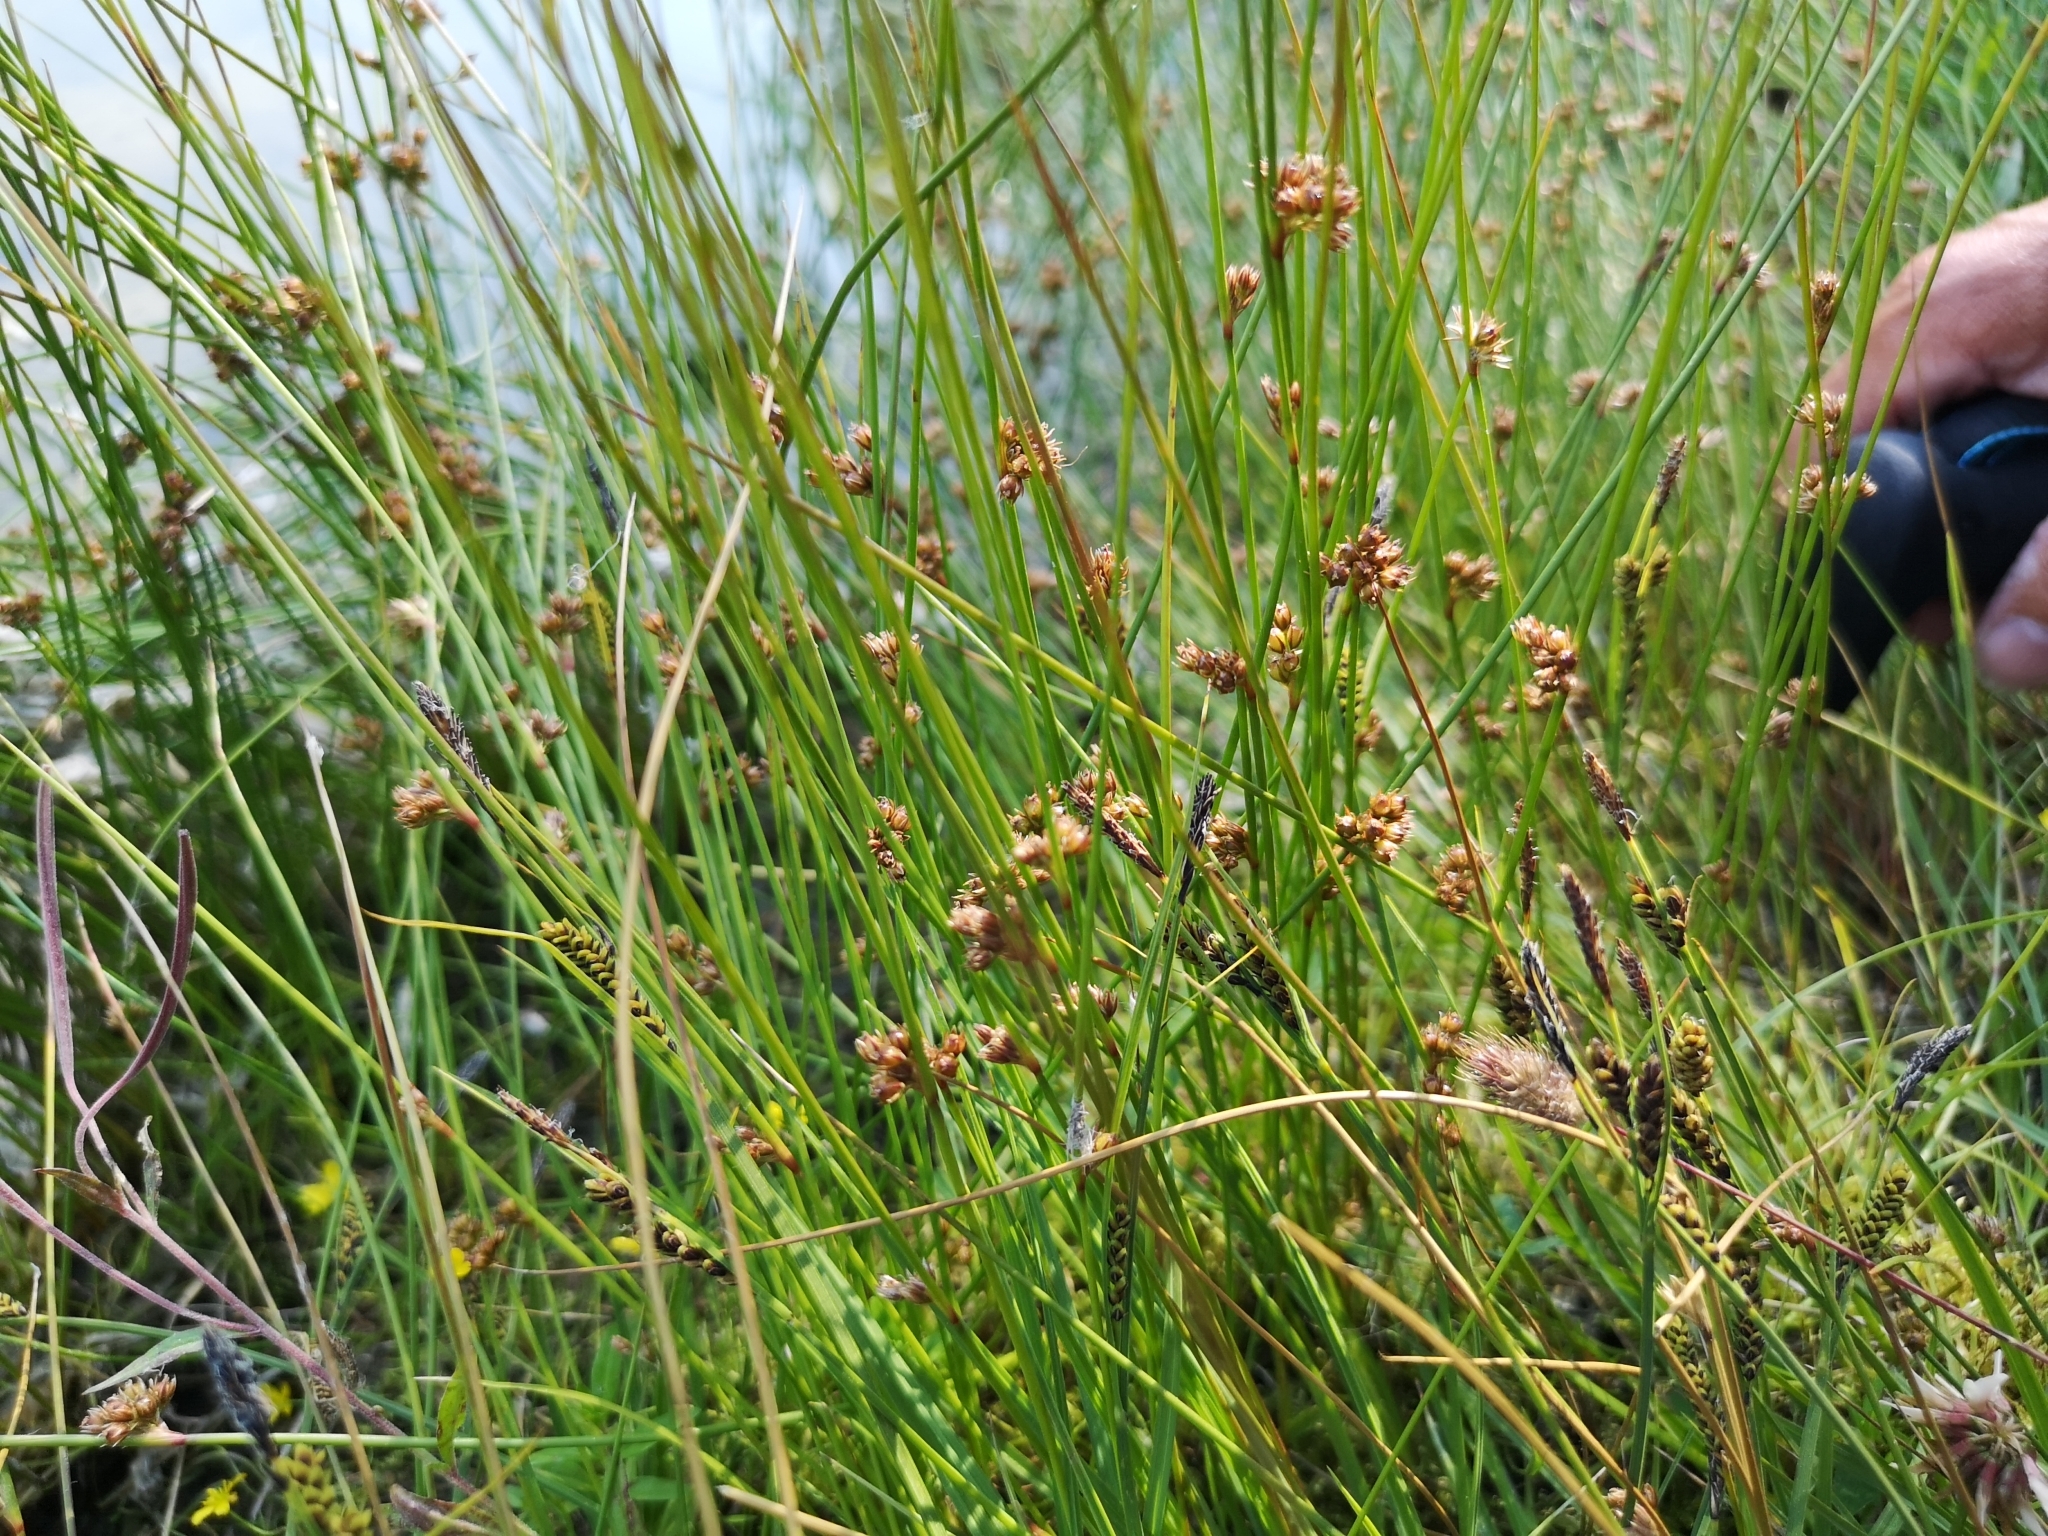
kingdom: Plantae
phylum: Tracheophyta
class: Liliopsida
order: Poales
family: Juncaceae
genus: Juncus
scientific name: Juncus filiformis
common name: Thread rush
